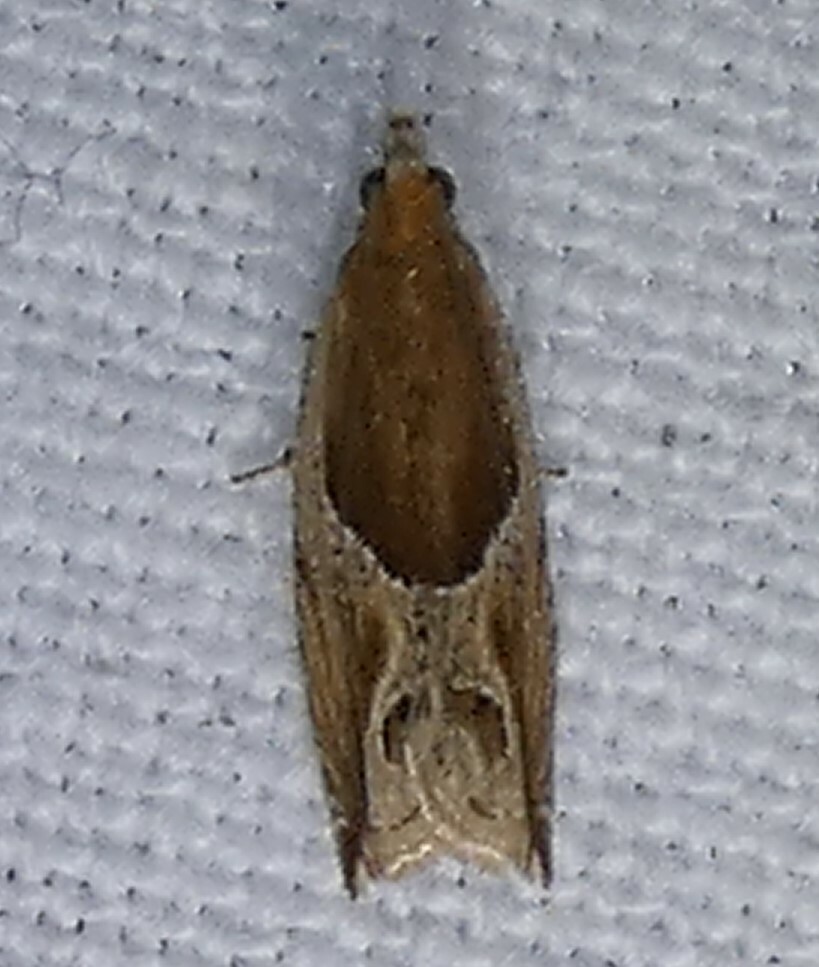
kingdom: Animalia
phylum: Arthropoda
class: Insecta
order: Lepidoptera
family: Tortricidae
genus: Ancylis
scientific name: Ancylis comptana
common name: Little roller
